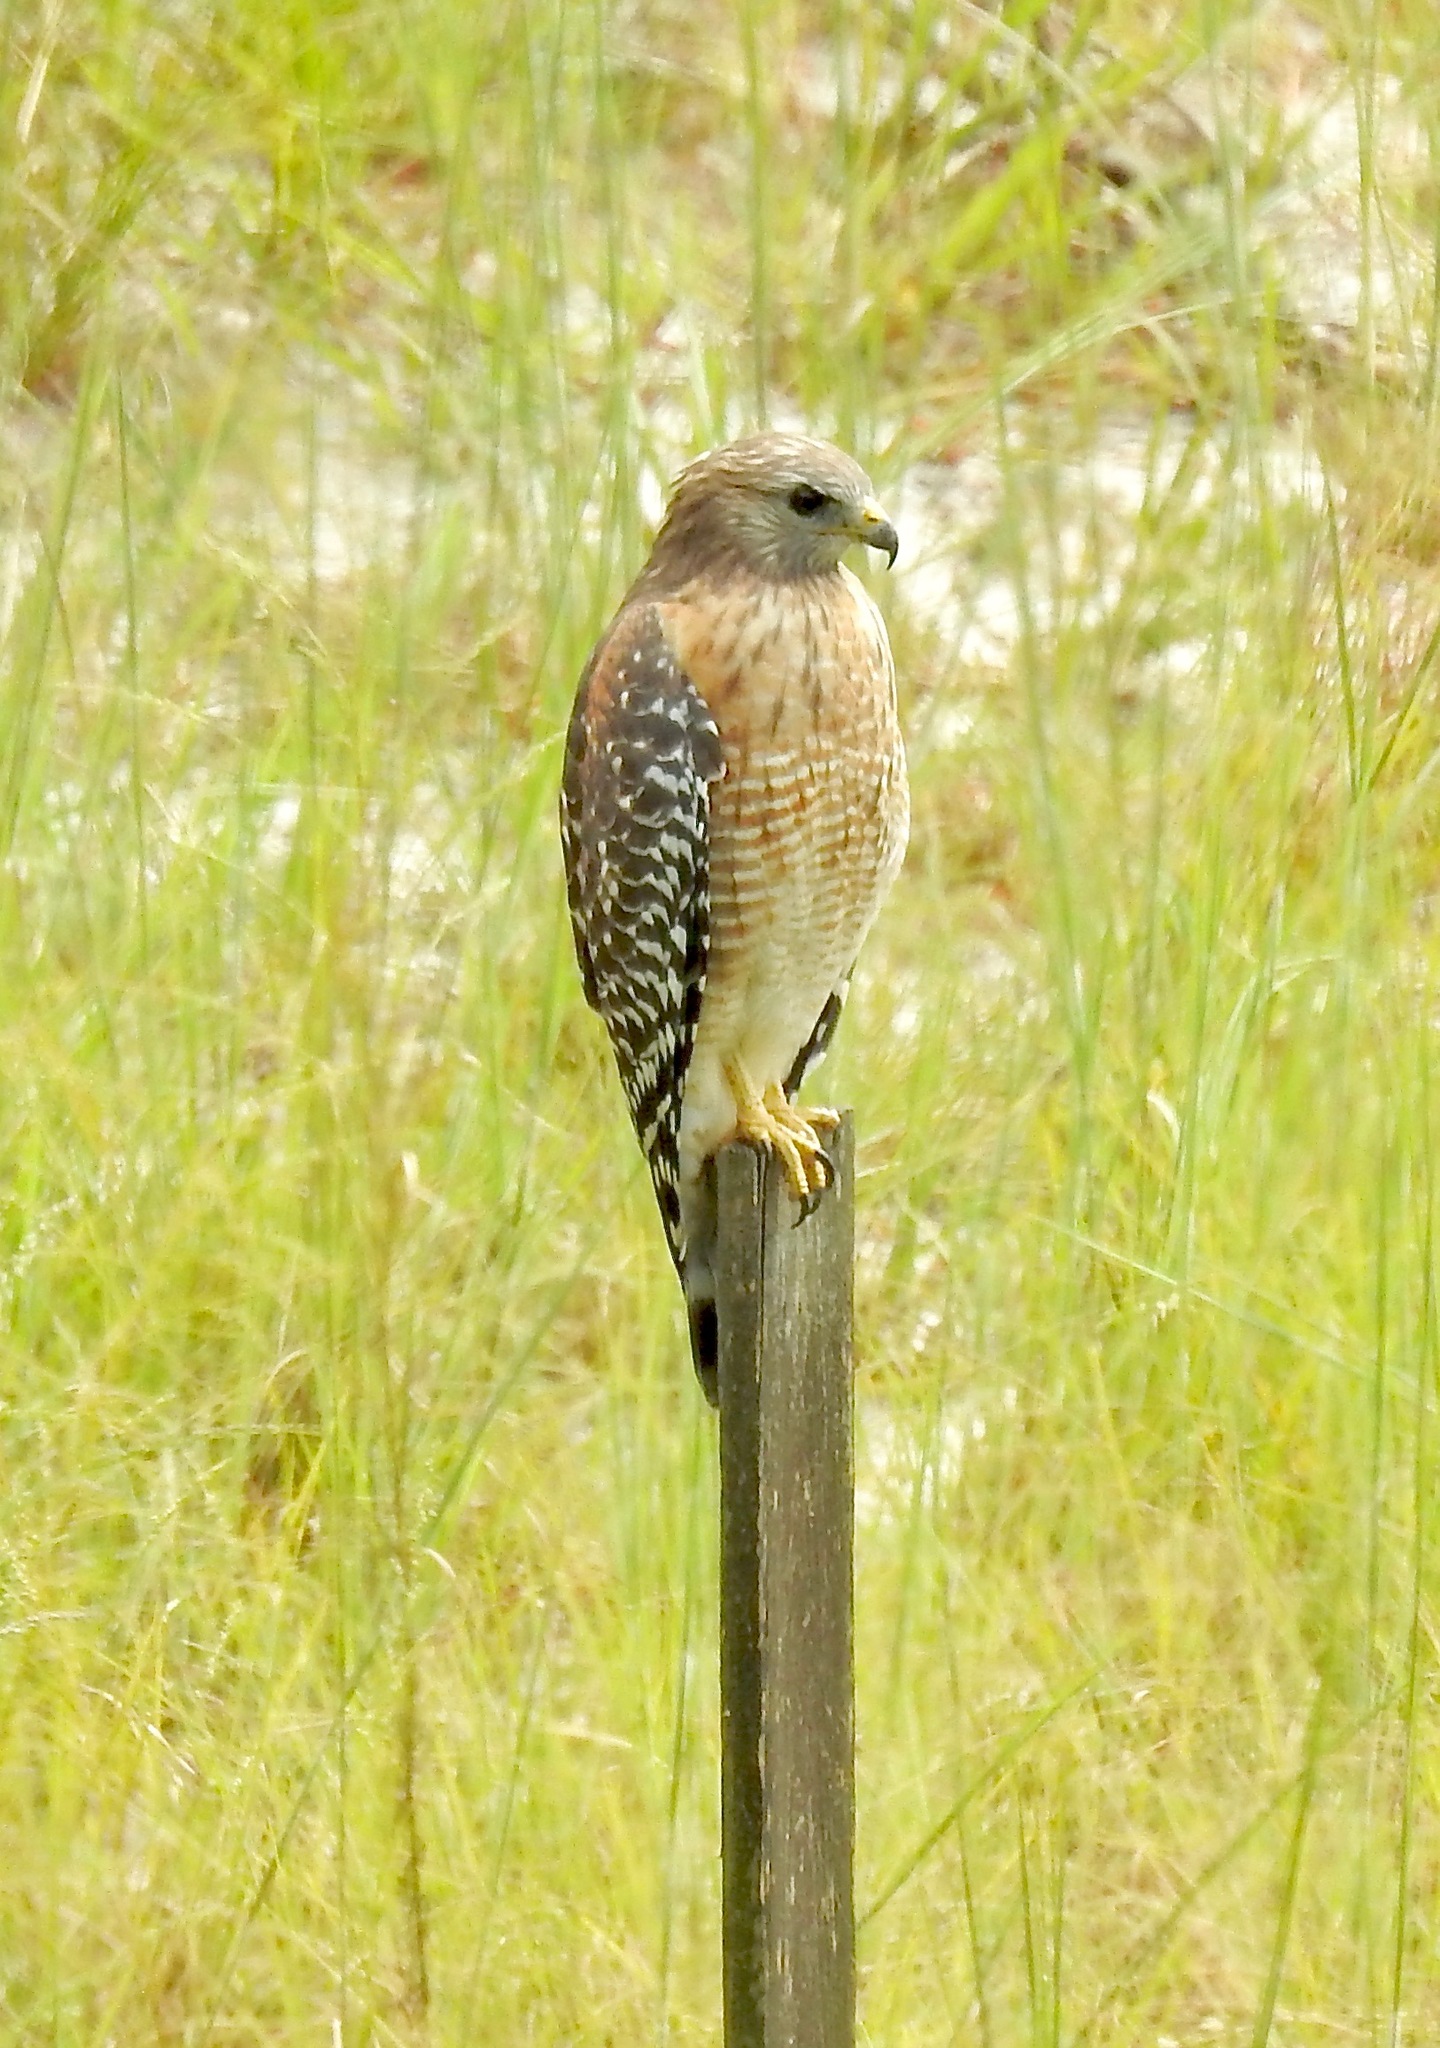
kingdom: Animalia
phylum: Chordata
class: Aves
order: Accipitriformes
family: Accipitridae
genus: Buteo
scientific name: Buteo lineatus
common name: Red-shouldered hawk
